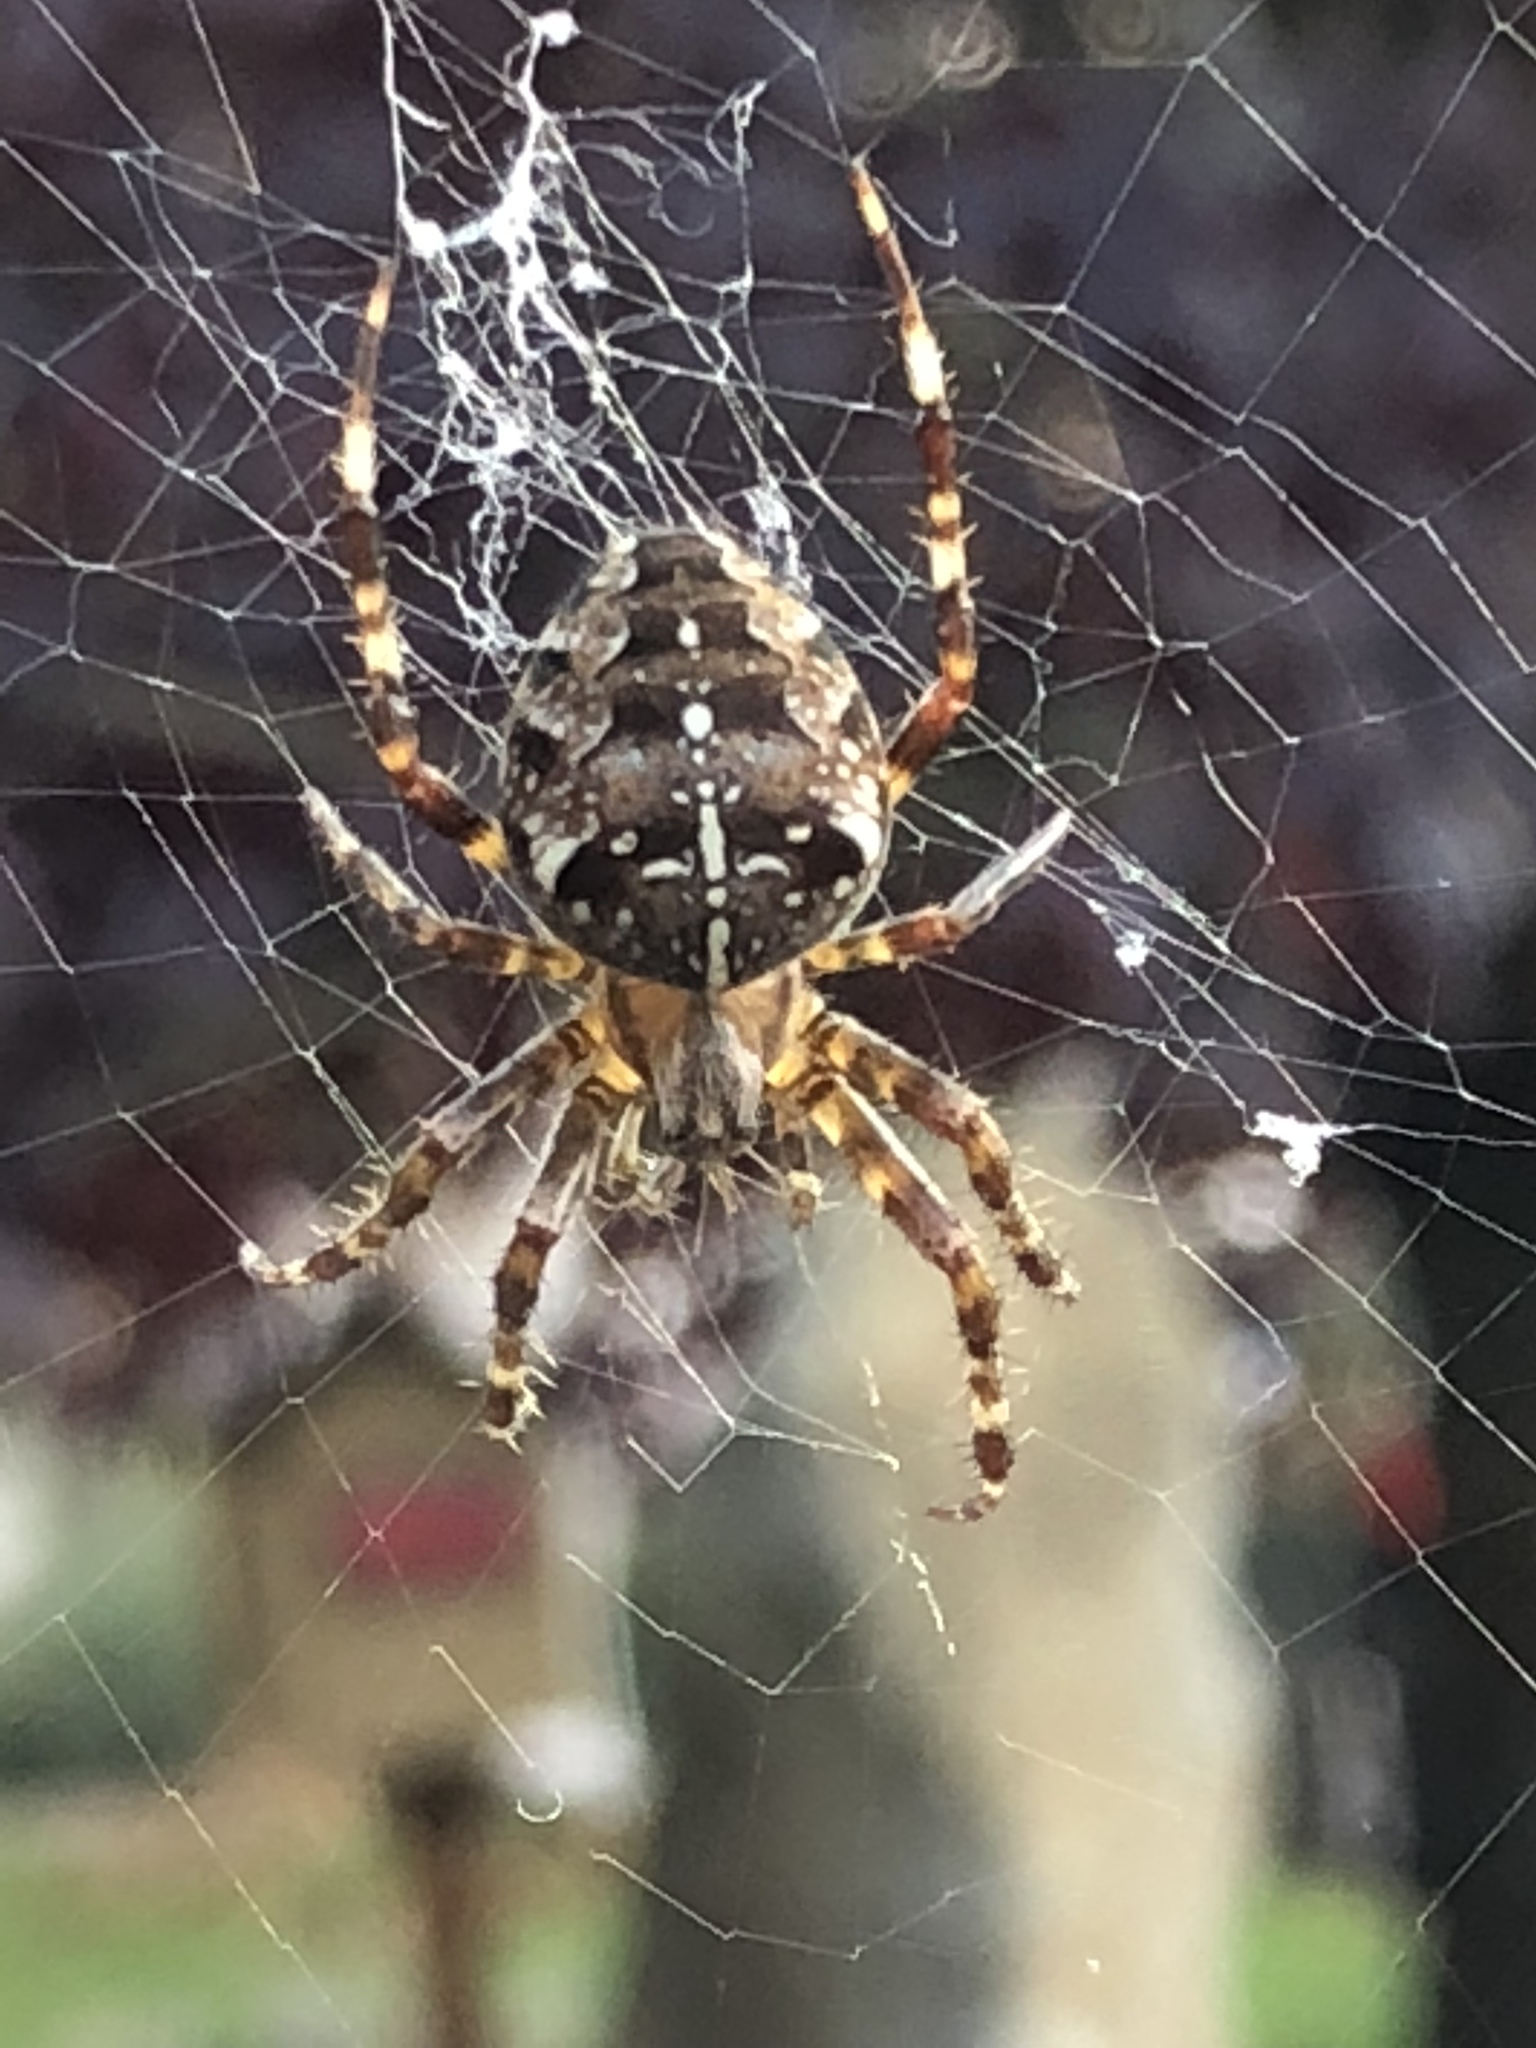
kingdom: Animalia
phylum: Arthropoda
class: Arachnida
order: Araneae
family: Araneidae
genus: Araneus
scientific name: Araneus diadematus
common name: Cross orbweaver
